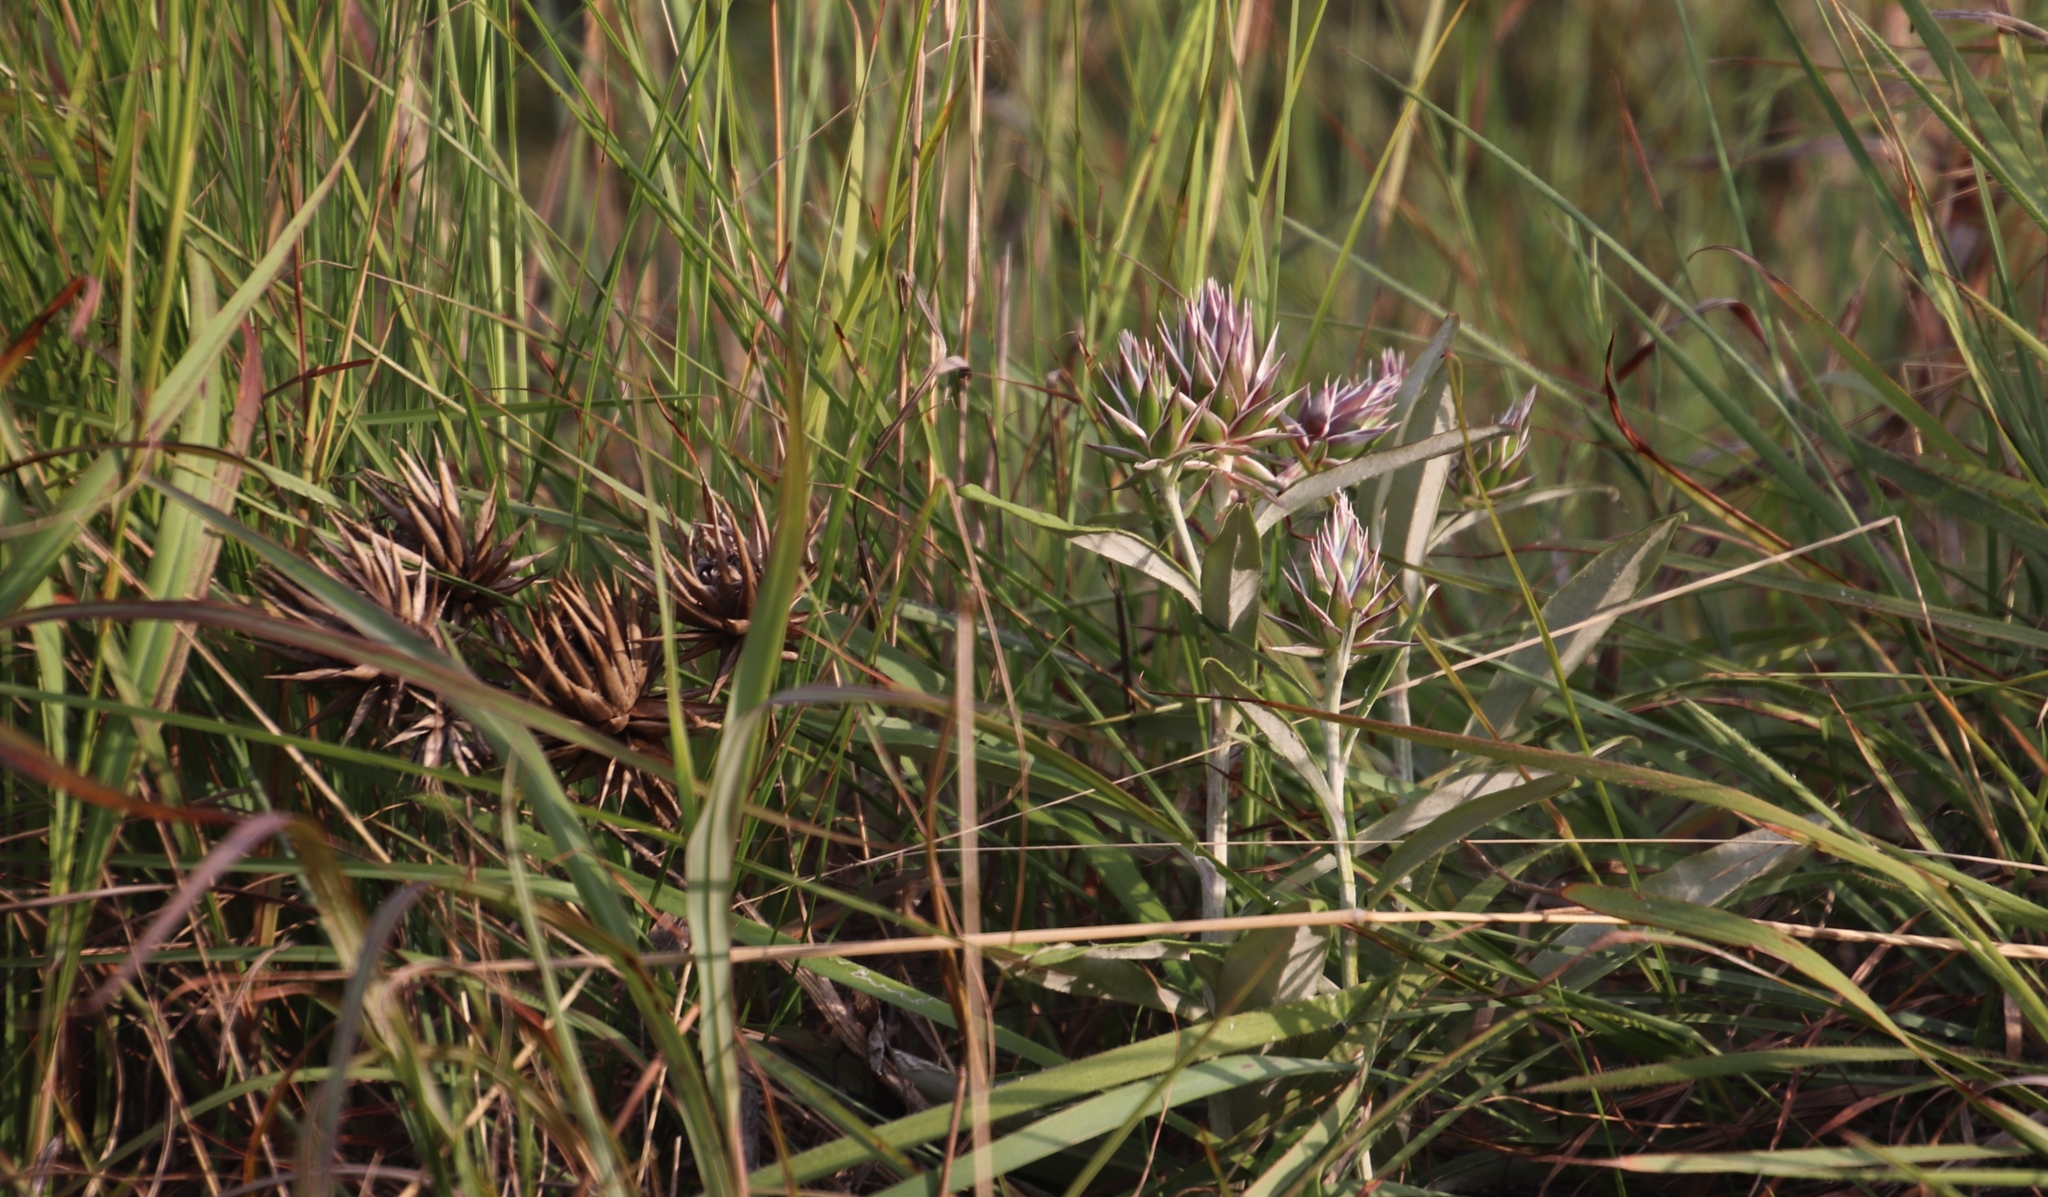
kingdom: Plantae
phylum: Tracheophyta
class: Magnoliopsida
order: Asterales
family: Asteraceae
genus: Macledium
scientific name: Macledium zeyheri
